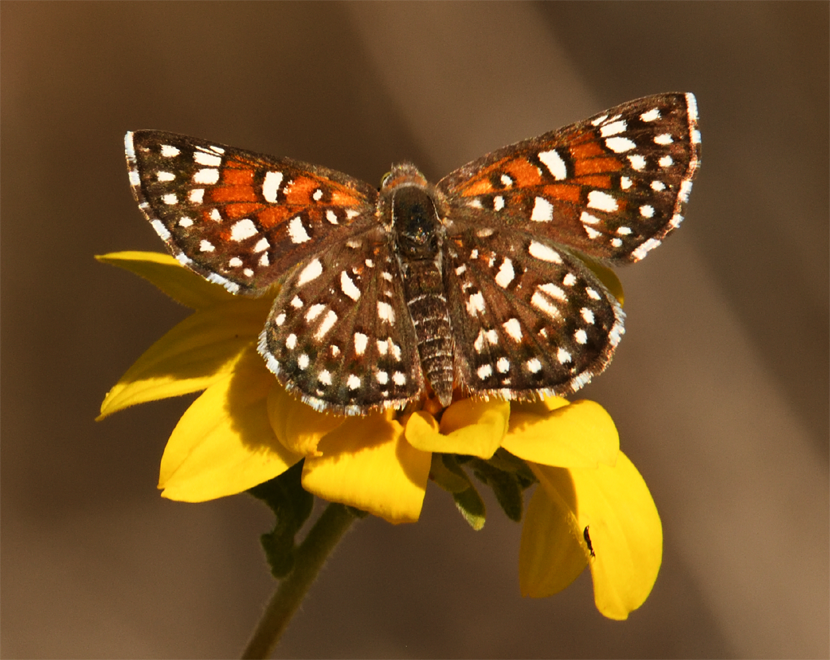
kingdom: Animalia
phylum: Arthropoda
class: Insecta
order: Lepidoptera
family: Riodinidae
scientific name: Riodinidae
